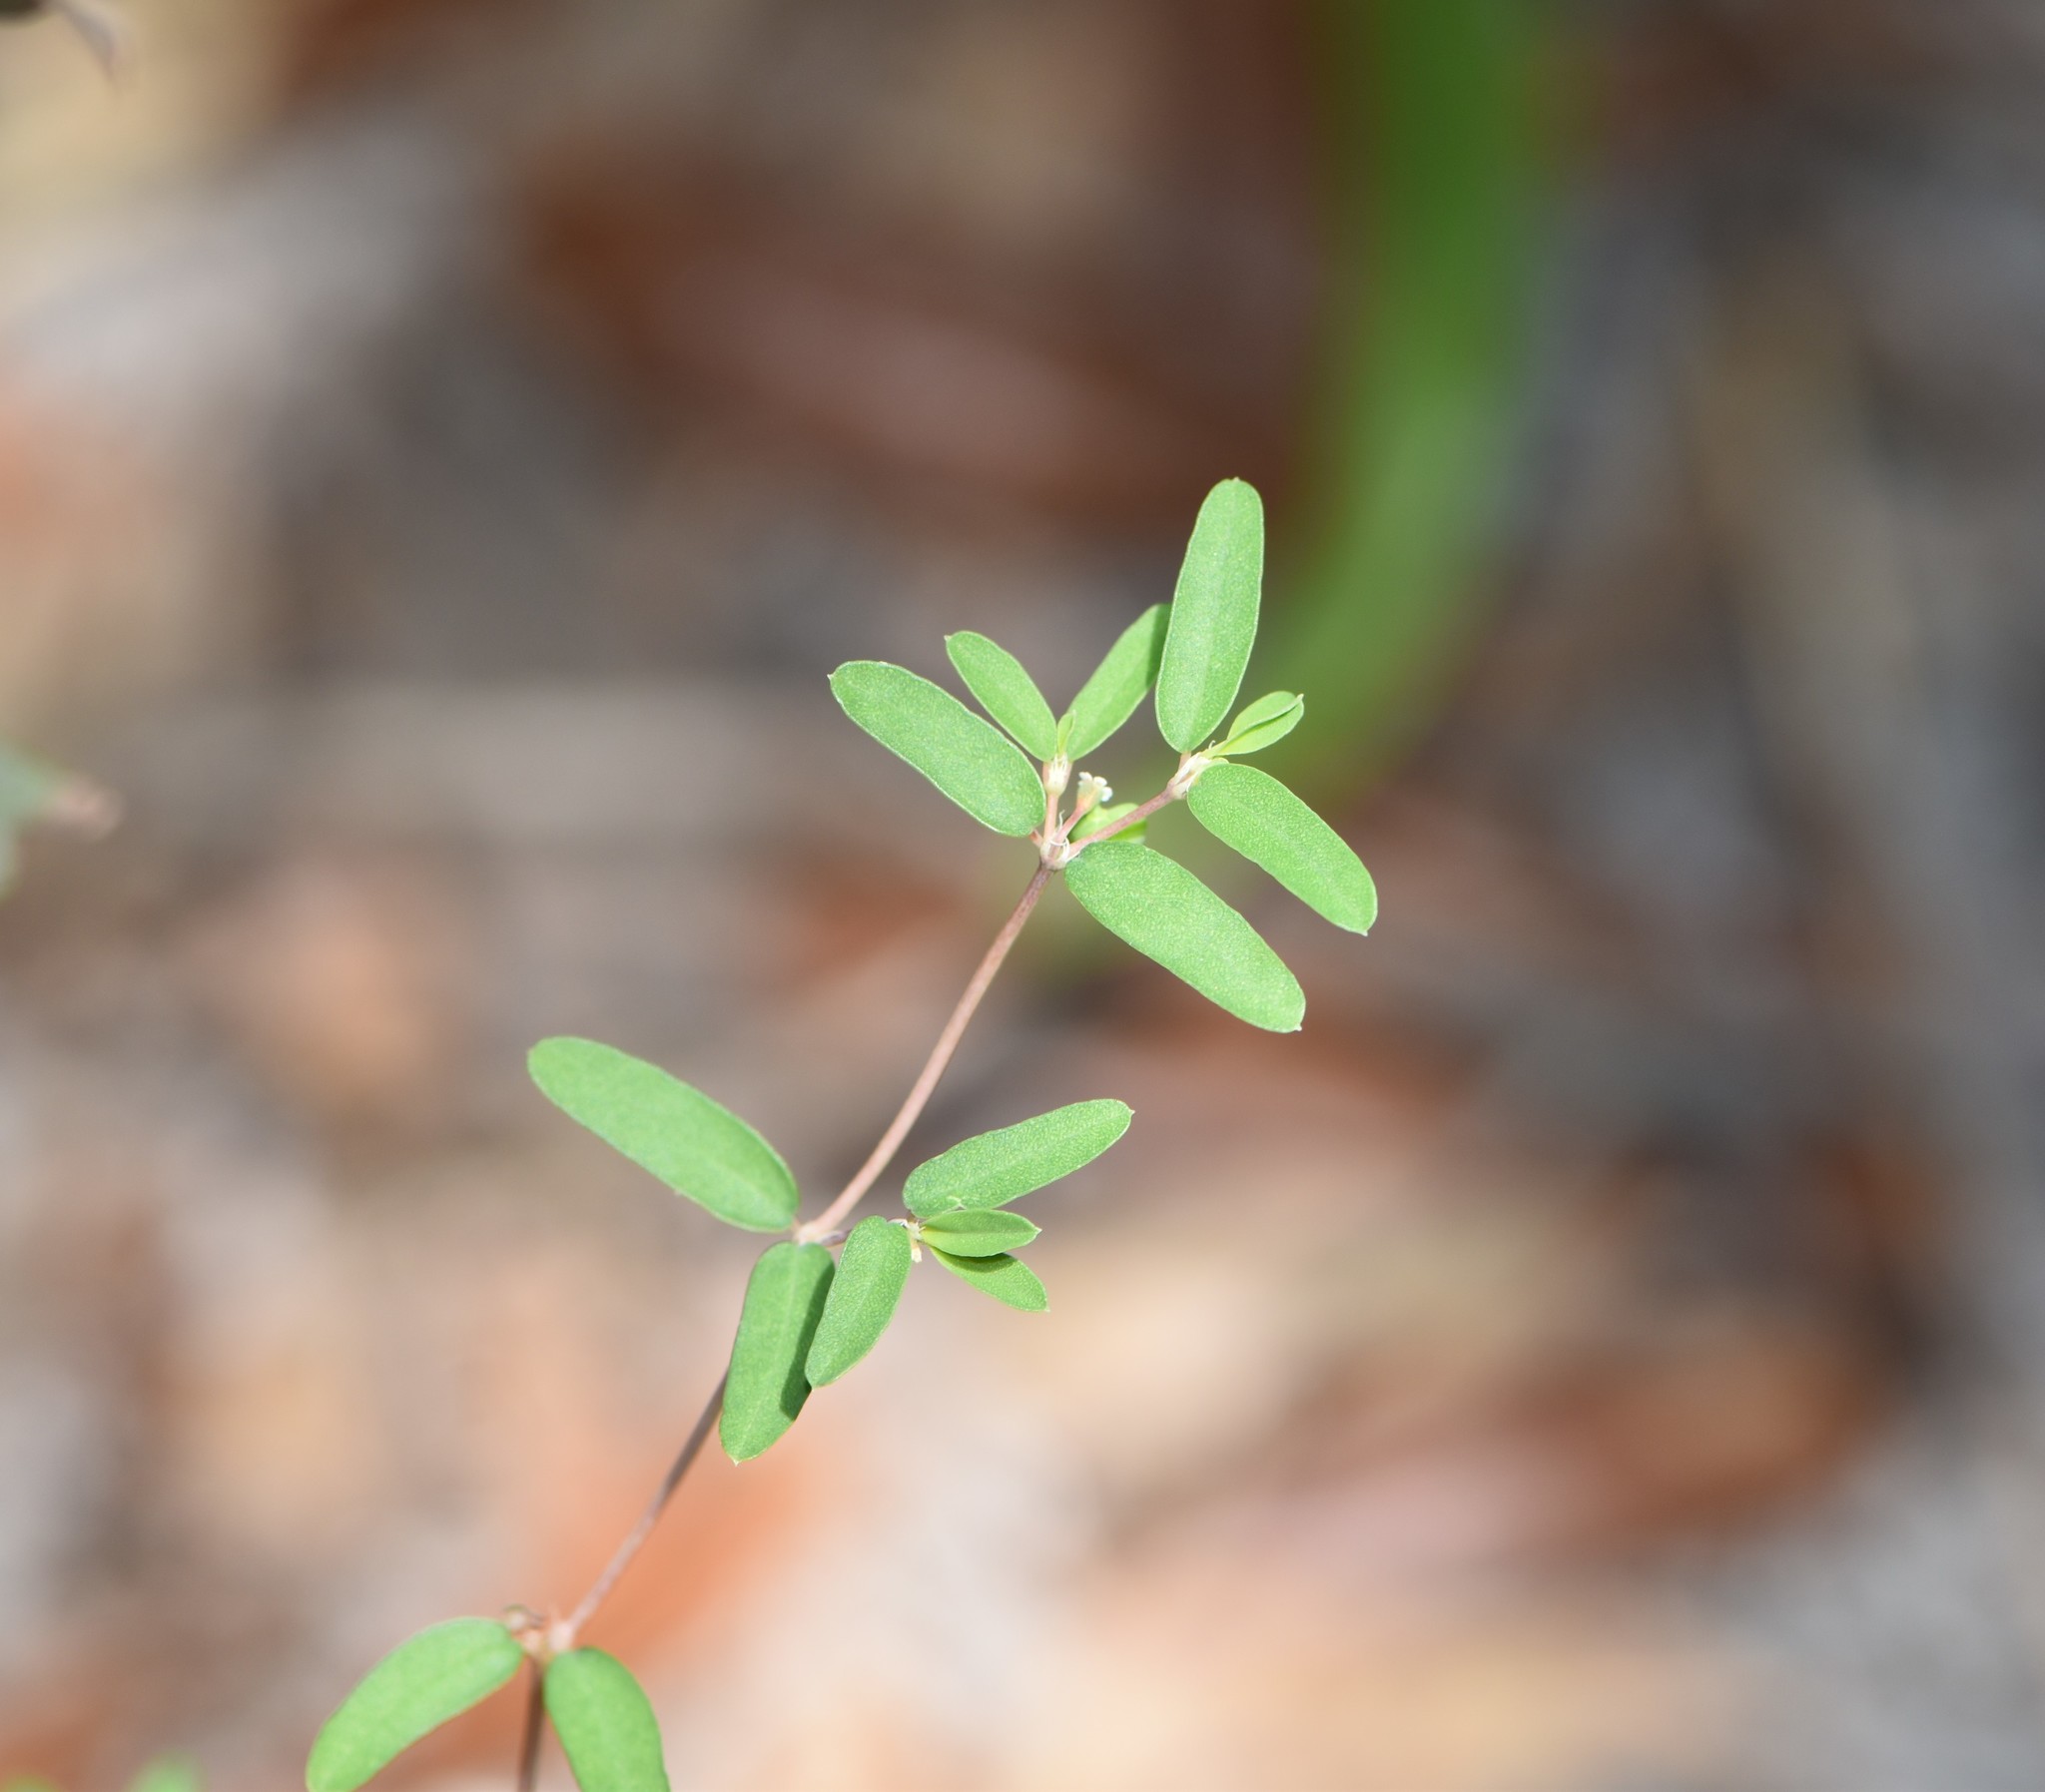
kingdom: Plantae
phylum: Tracheophyta
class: Magnoliopsida
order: Malpighiales
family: Euphorbiaceae
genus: Euphorbia
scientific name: Euphorbia cumulicola
